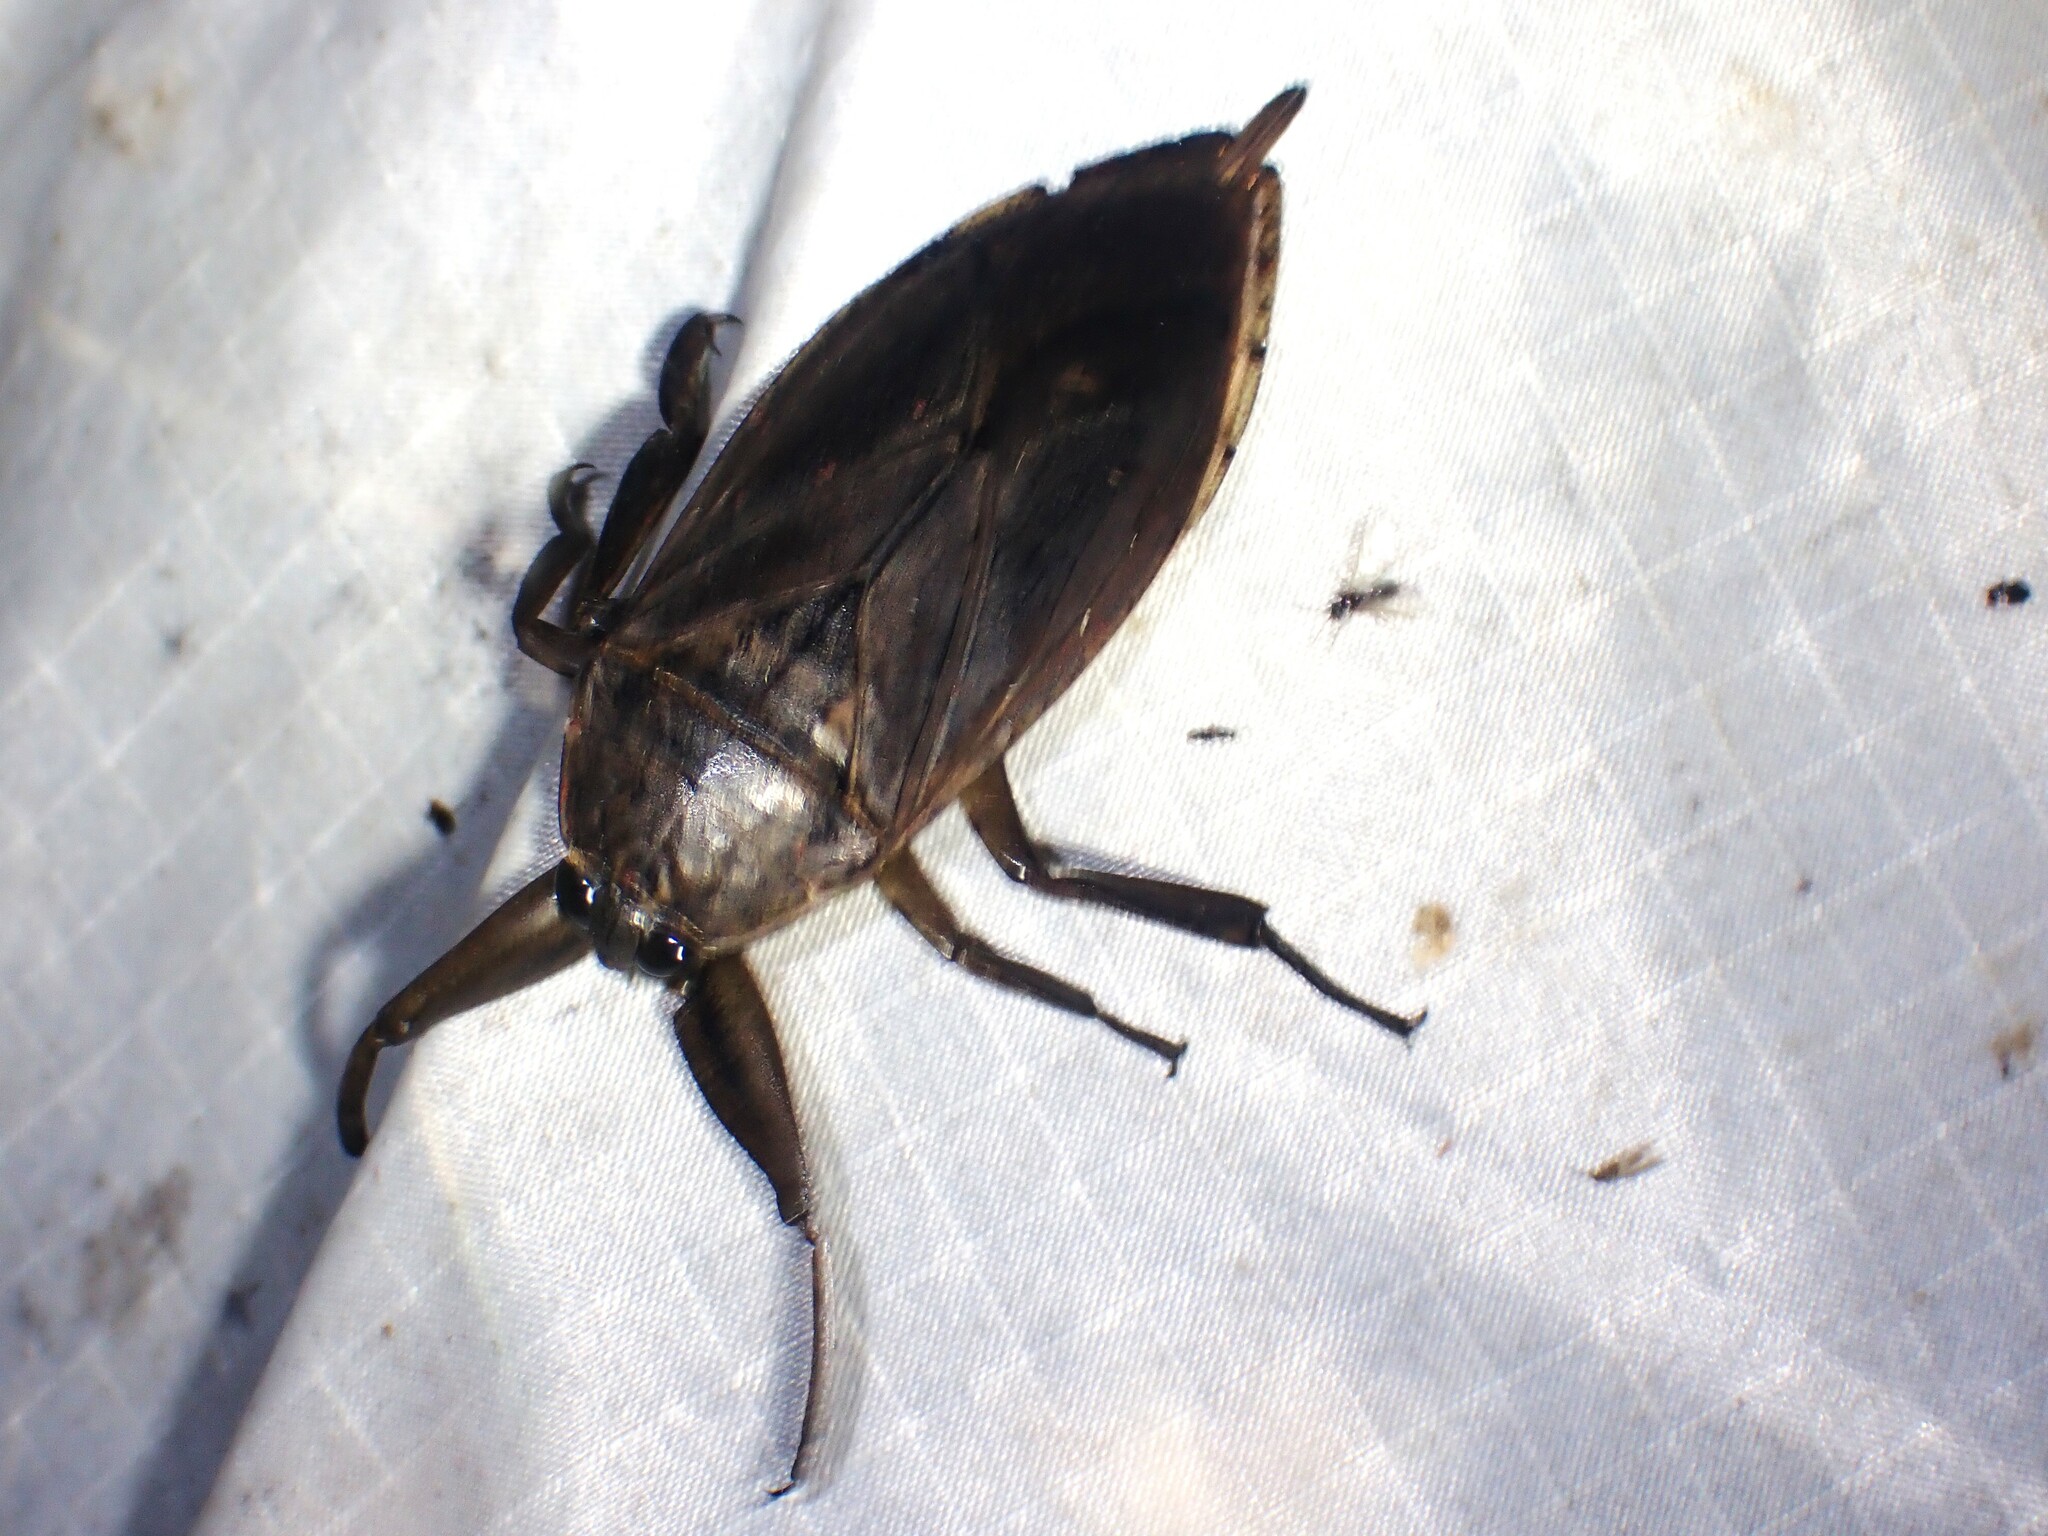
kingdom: Animalia
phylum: Arthropoda
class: Insecta
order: Hemiptera
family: Belostomatidae
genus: Lethocerus
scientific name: Lethocerus americanus
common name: Giant water bug
